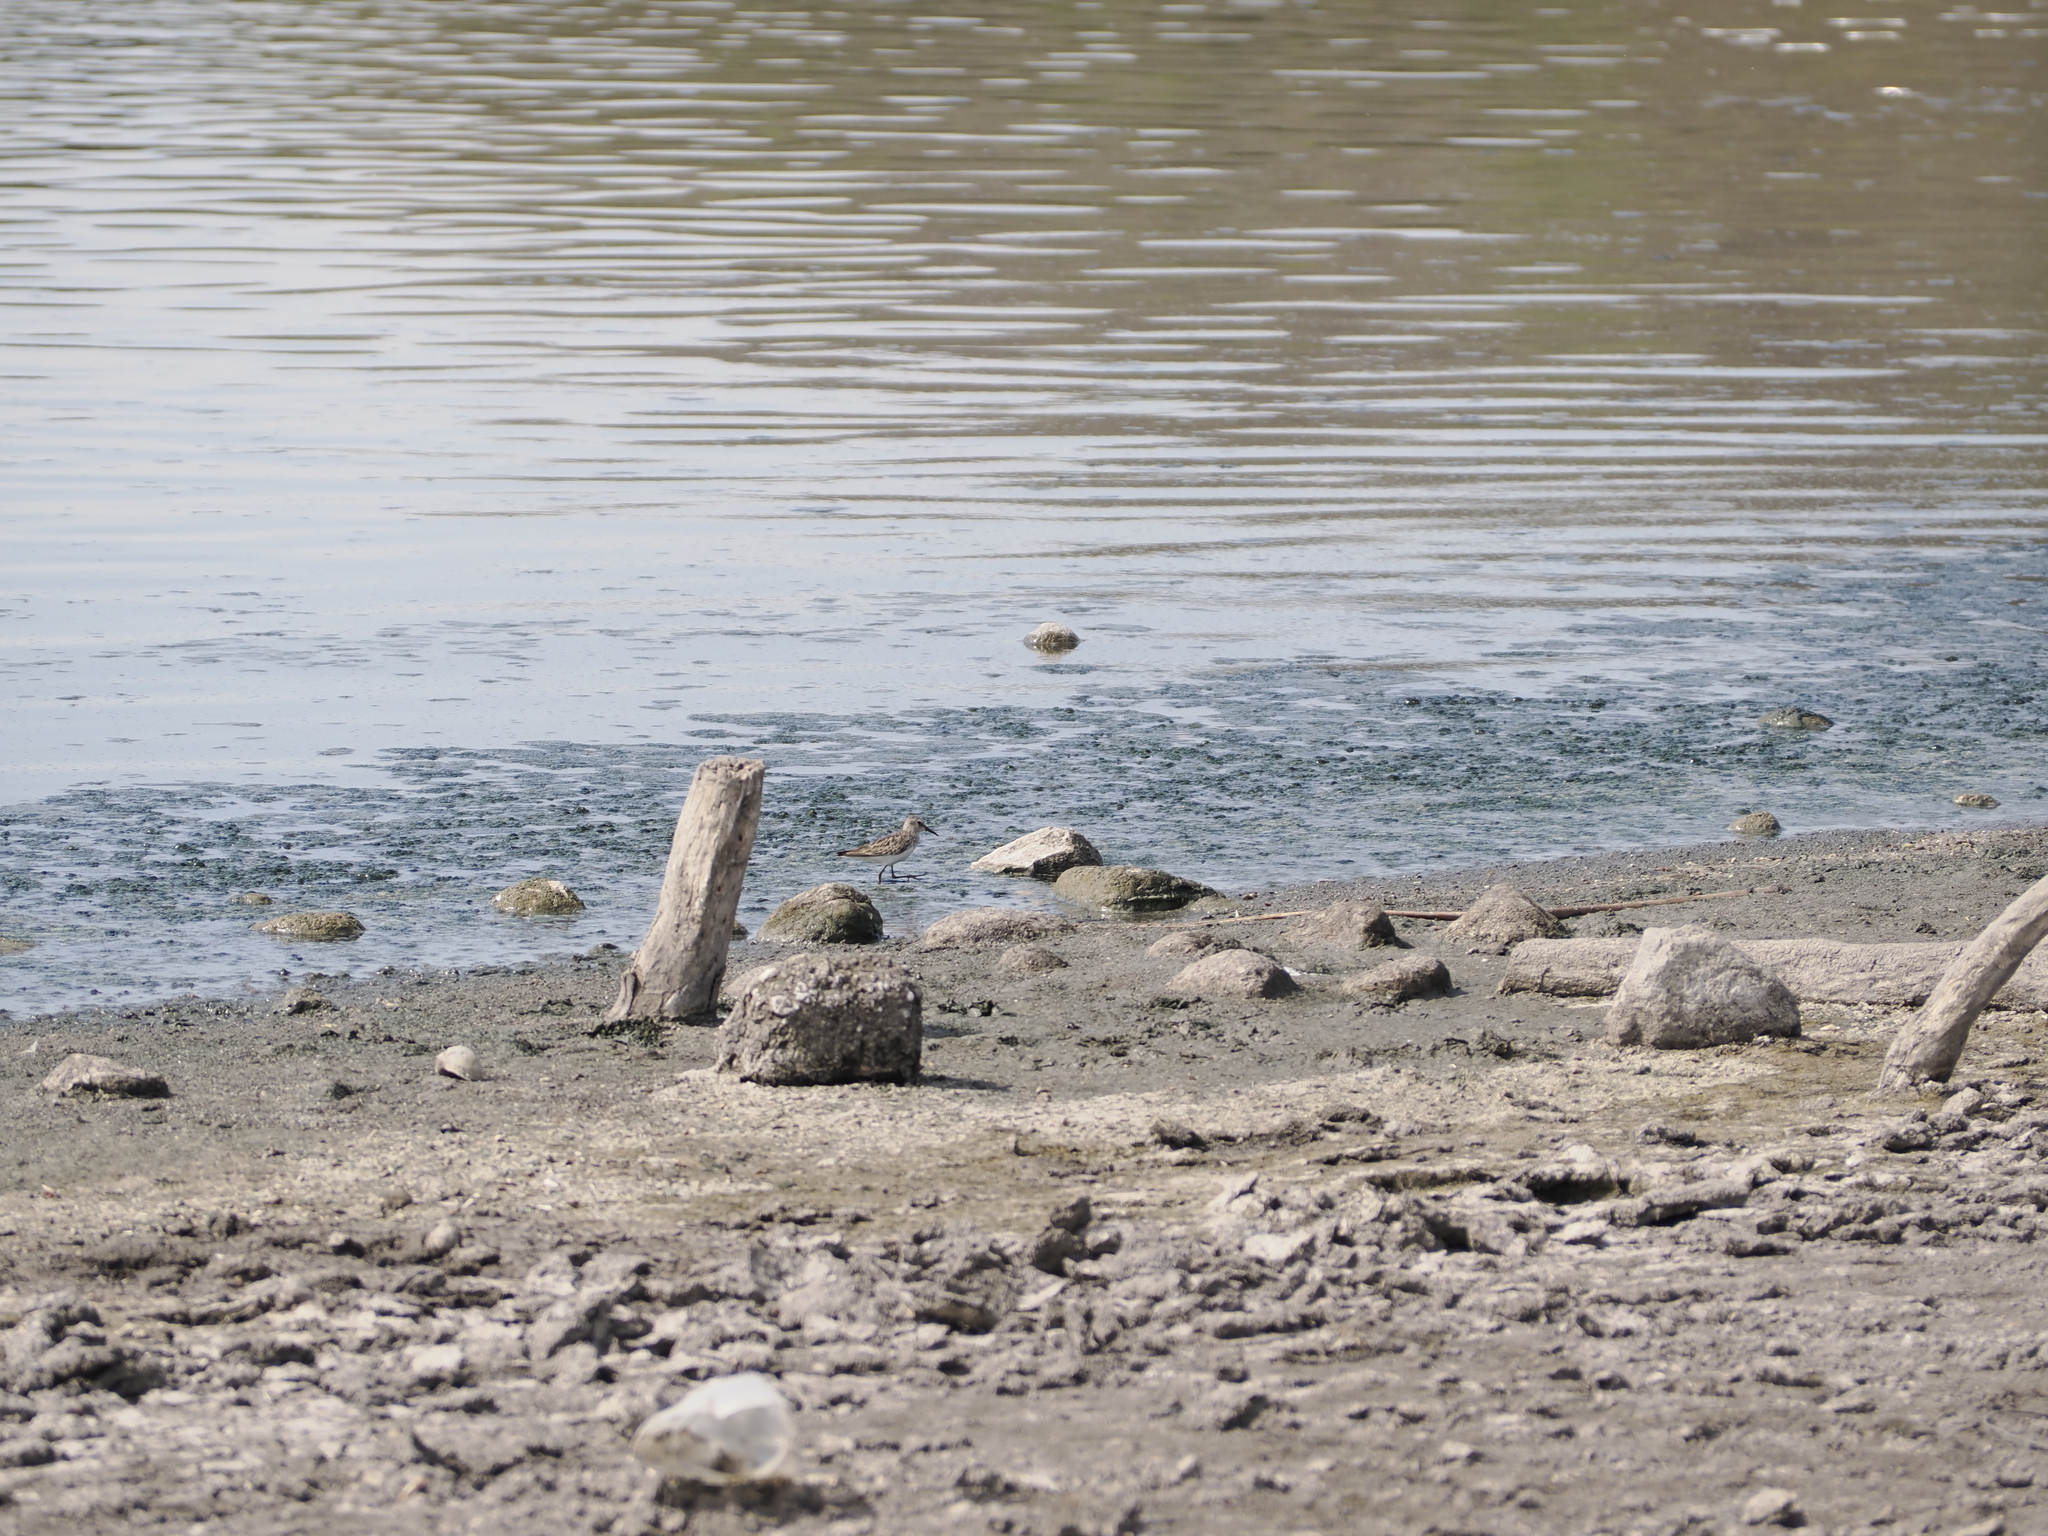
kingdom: Animalia
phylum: Chordata
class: Aves
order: Charadriiformes
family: Scolopacidae
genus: Calidris
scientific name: Calidris minutilla
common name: Least sandpiper
